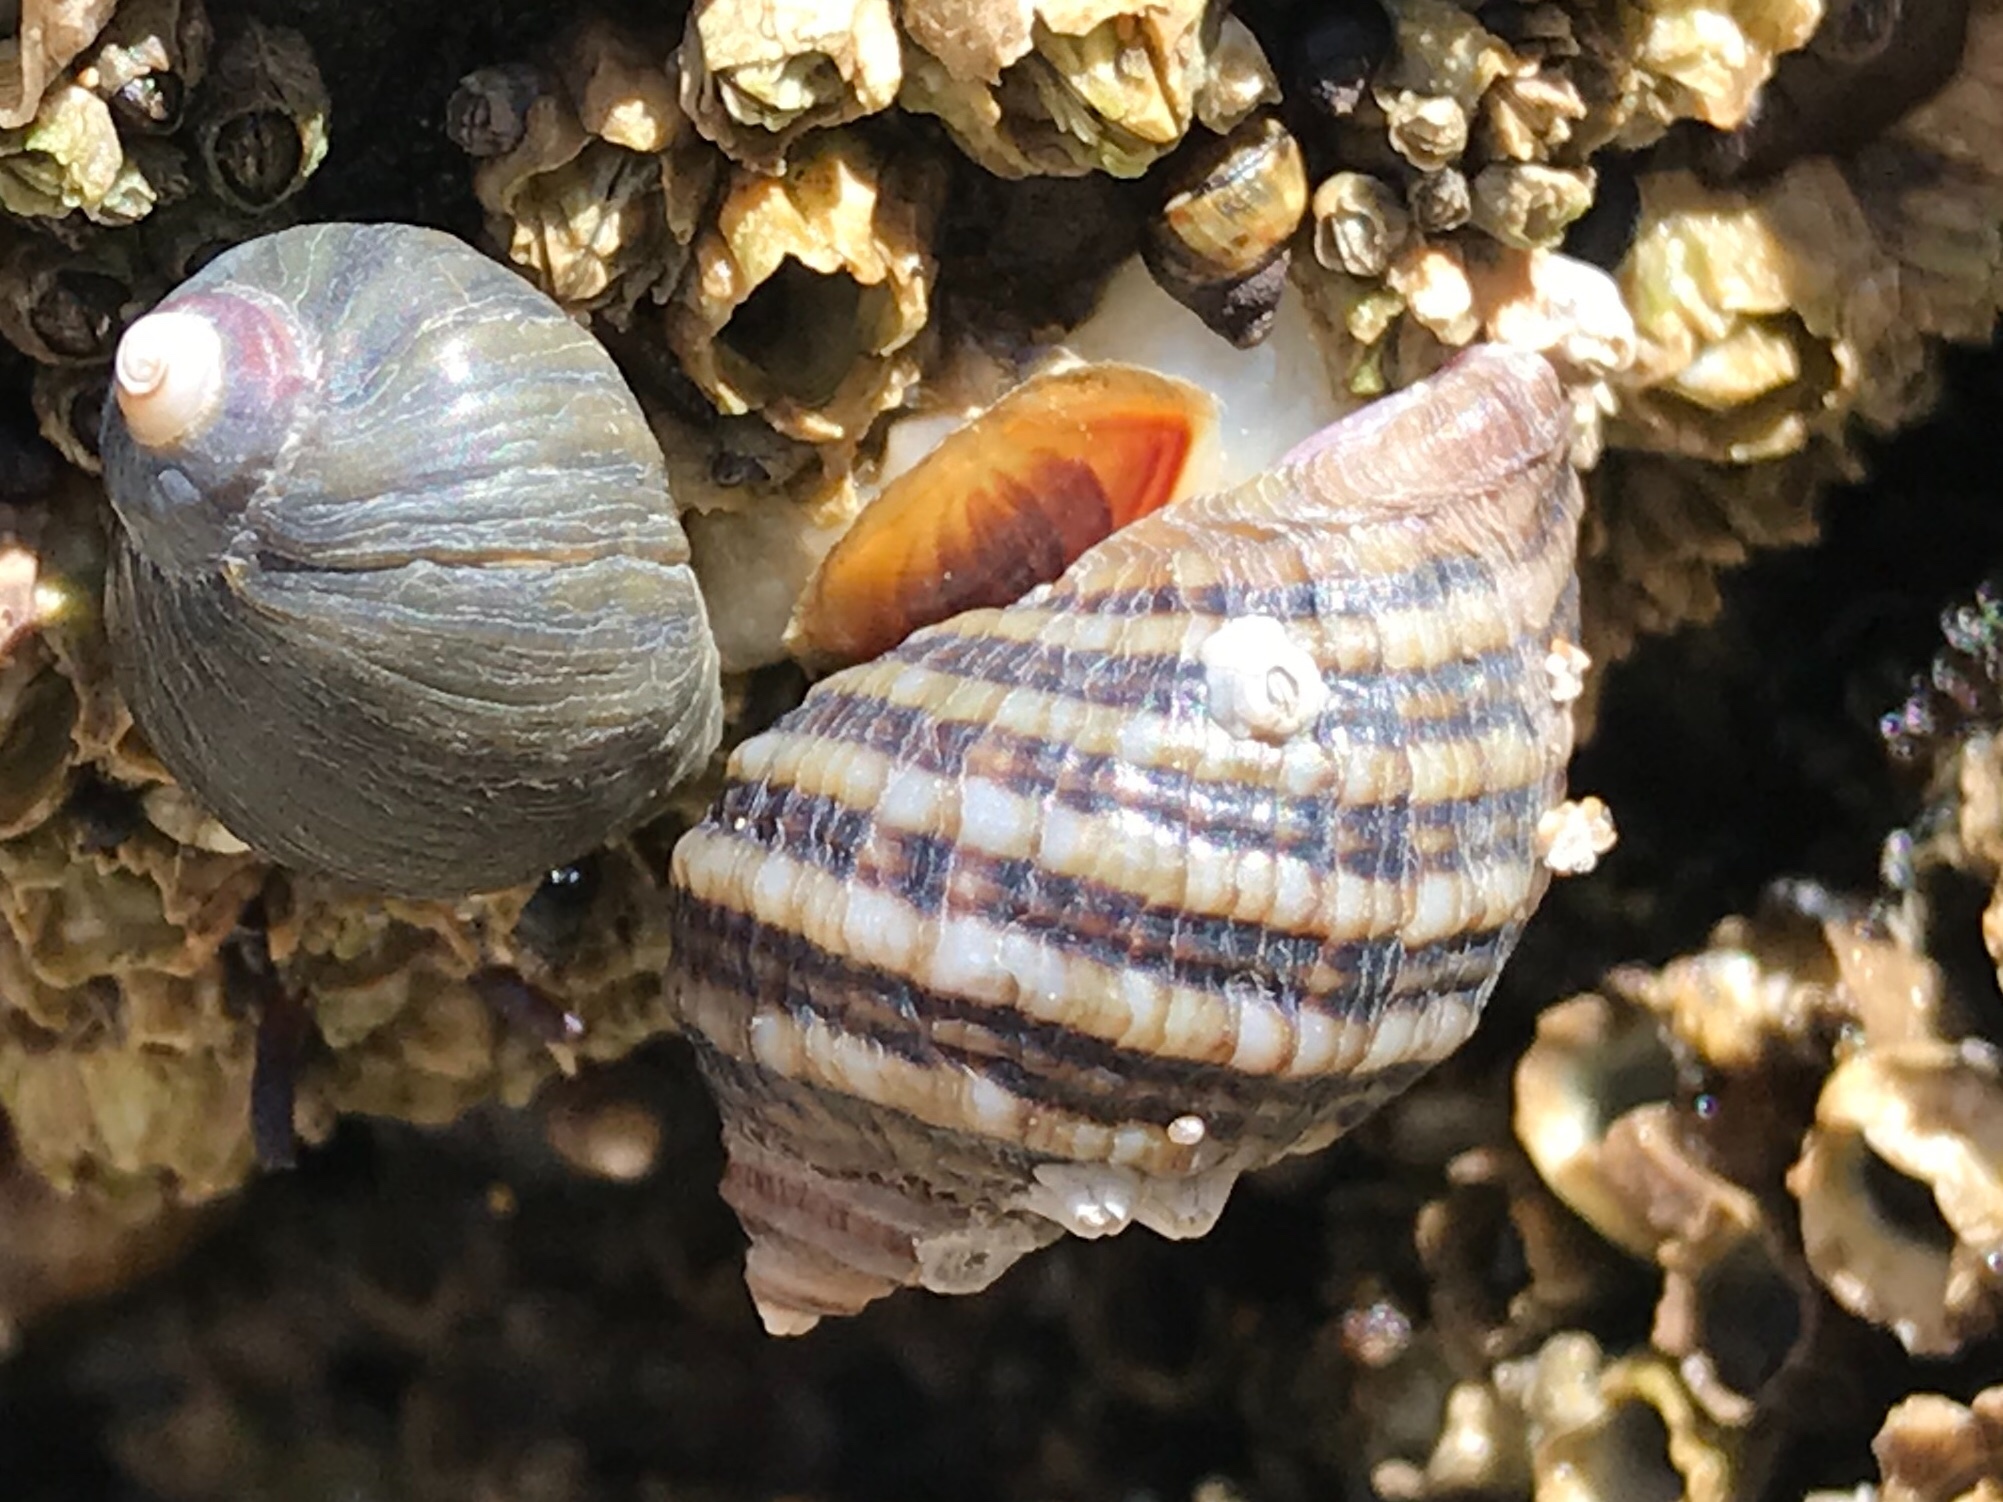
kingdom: Animalia
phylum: Mollusca
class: Gastropoda
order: Neogastropoda
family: Muricidae
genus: Nucella
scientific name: Nucella ostrina
